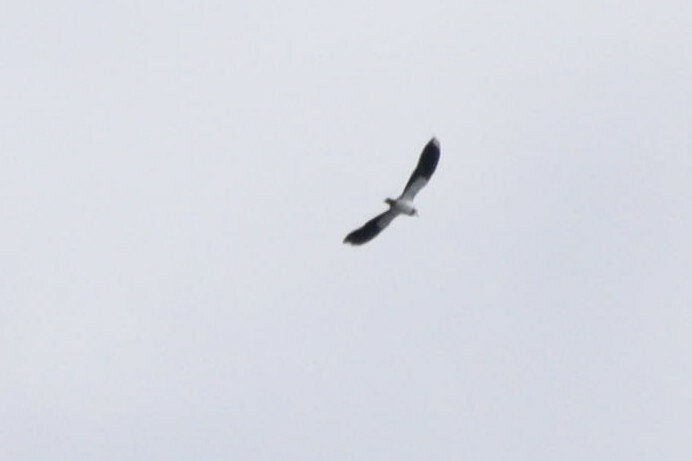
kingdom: Animalia
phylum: Chordata
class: Aves
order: Charadriiformes
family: Charadriidae
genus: Vanellus
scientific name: Vanellus vanellus
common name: Northern lapwing
